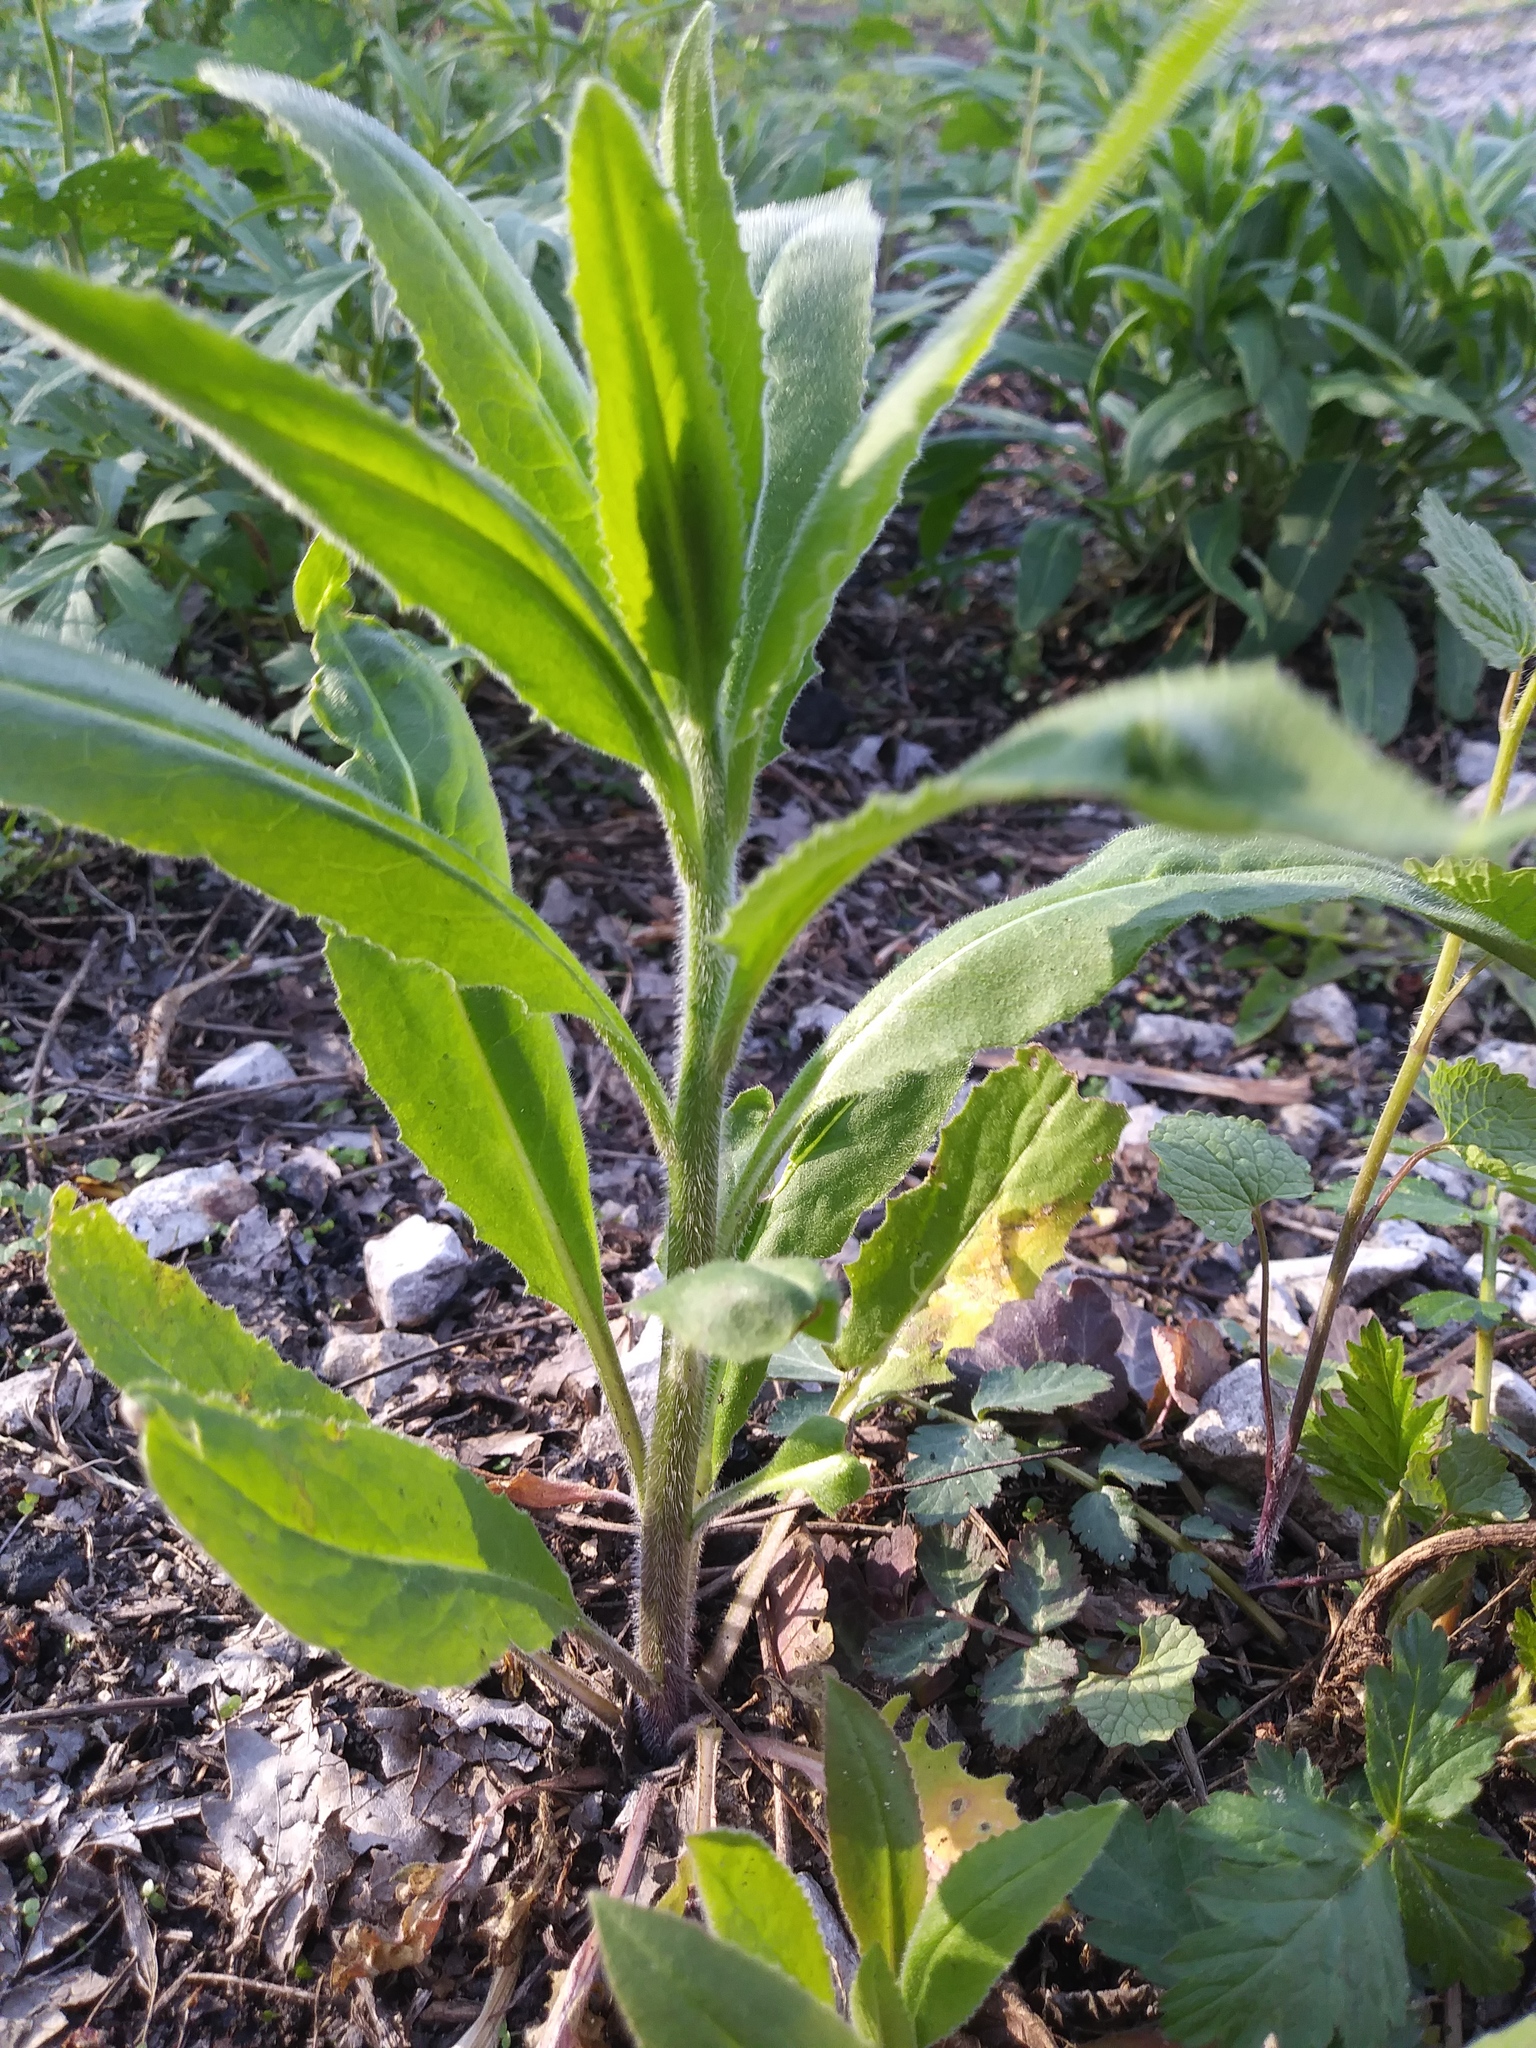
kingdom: Plantae
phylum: Tracheophyta
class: Magnoliopsida
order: Brassicales
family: Brassicaceae
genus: Hesperis
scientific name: Hesperis matronalis
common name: Dame's-violet
